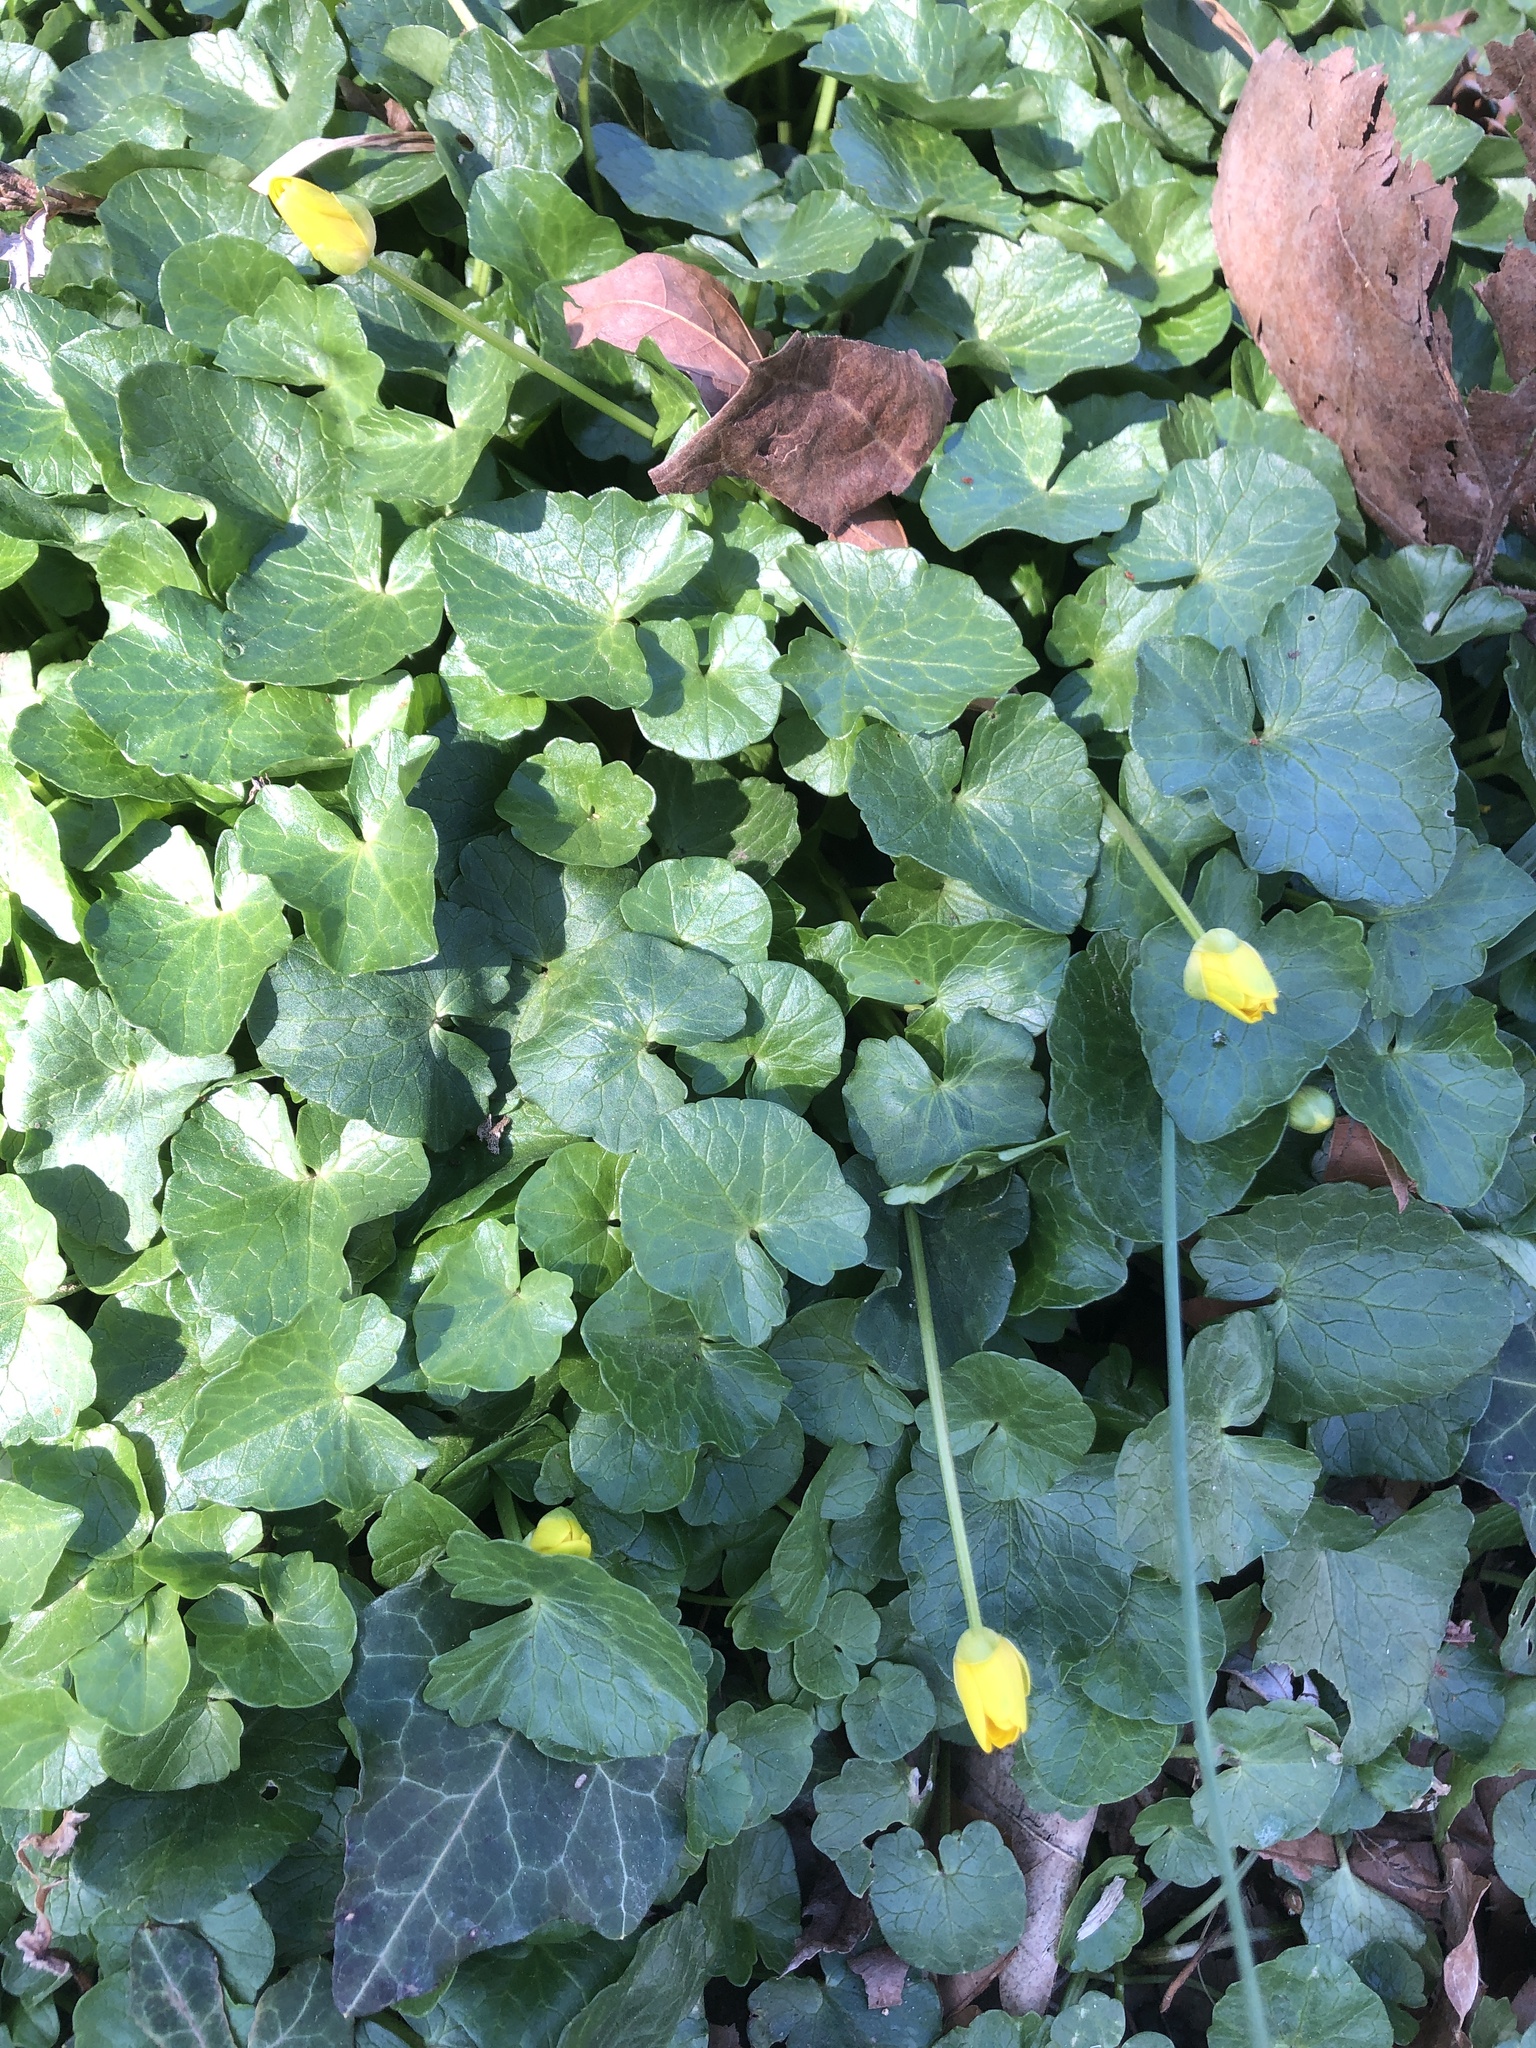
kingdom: Plantae
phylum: Tracheophyta
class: Magnoliopsida
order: Ranunculales
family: Ranunculaceae
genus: Ficaria
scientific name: Ficaria verna
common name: Lesser celandine
